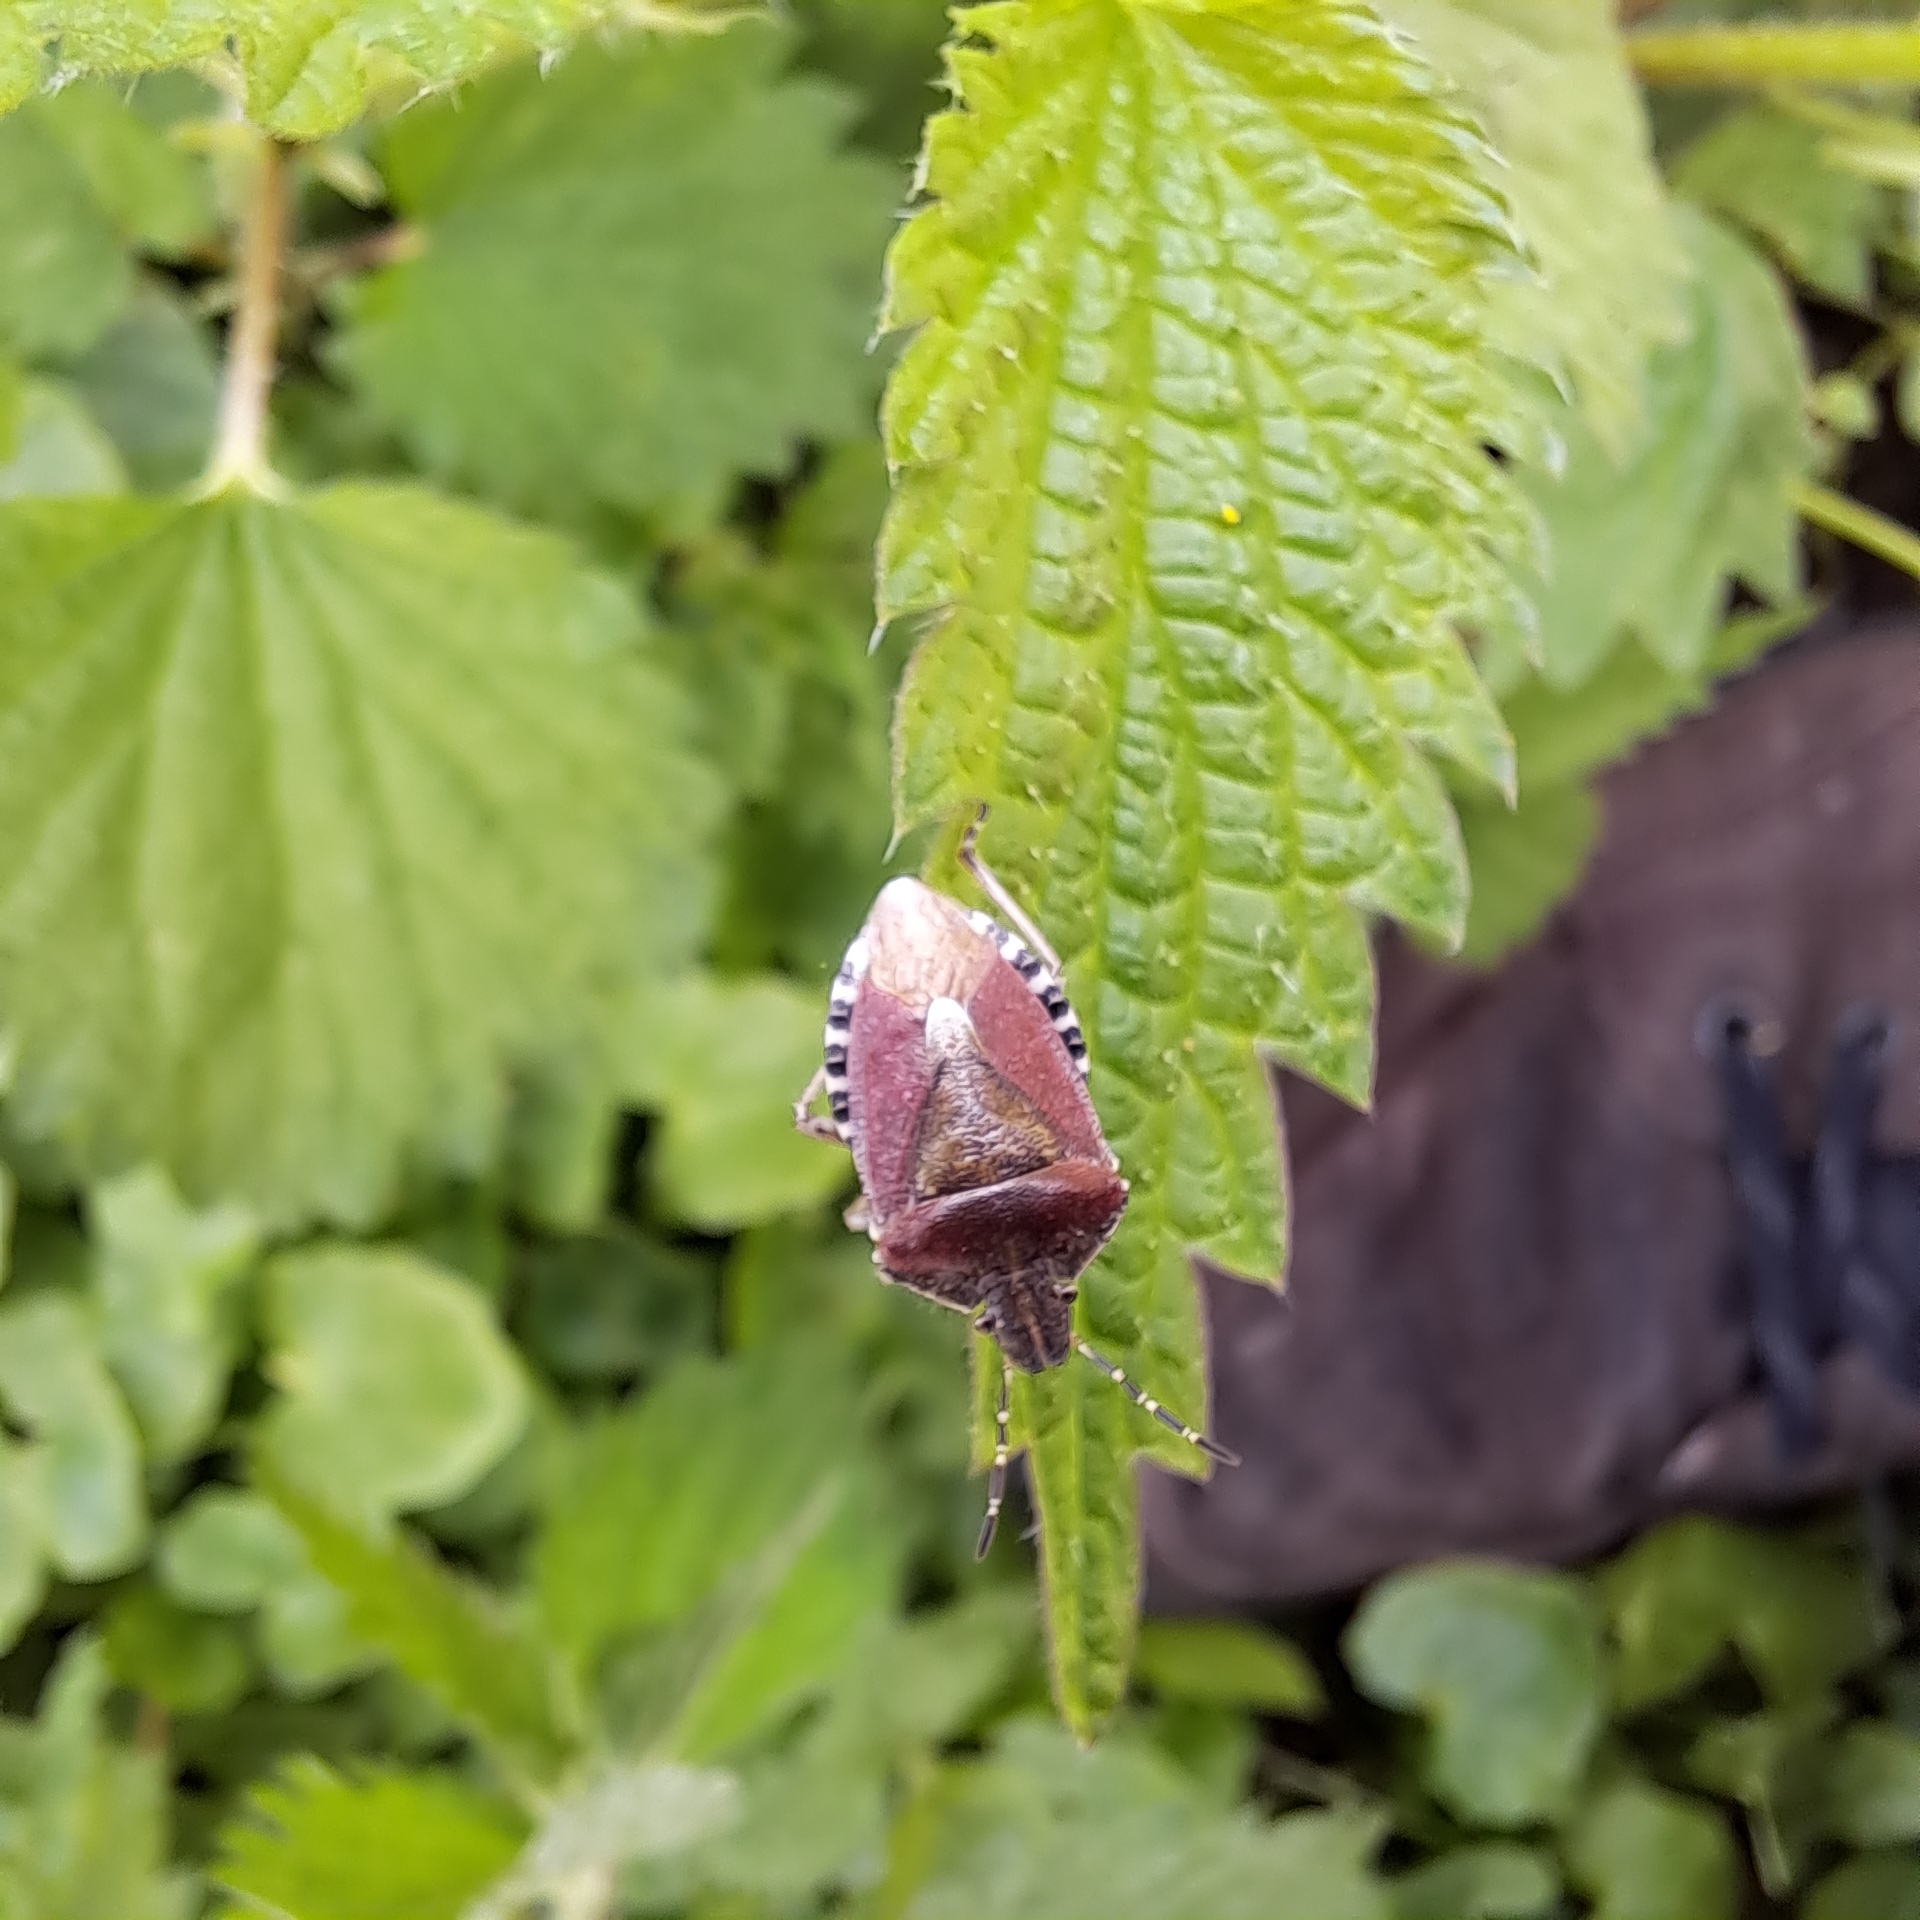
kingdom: Animalia
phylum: Arthropoda
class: Insecta
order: Hemiptera
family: Pentatomidae
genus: Dolycoris
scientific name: Dolycoris baccarum
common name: Sloe bug
